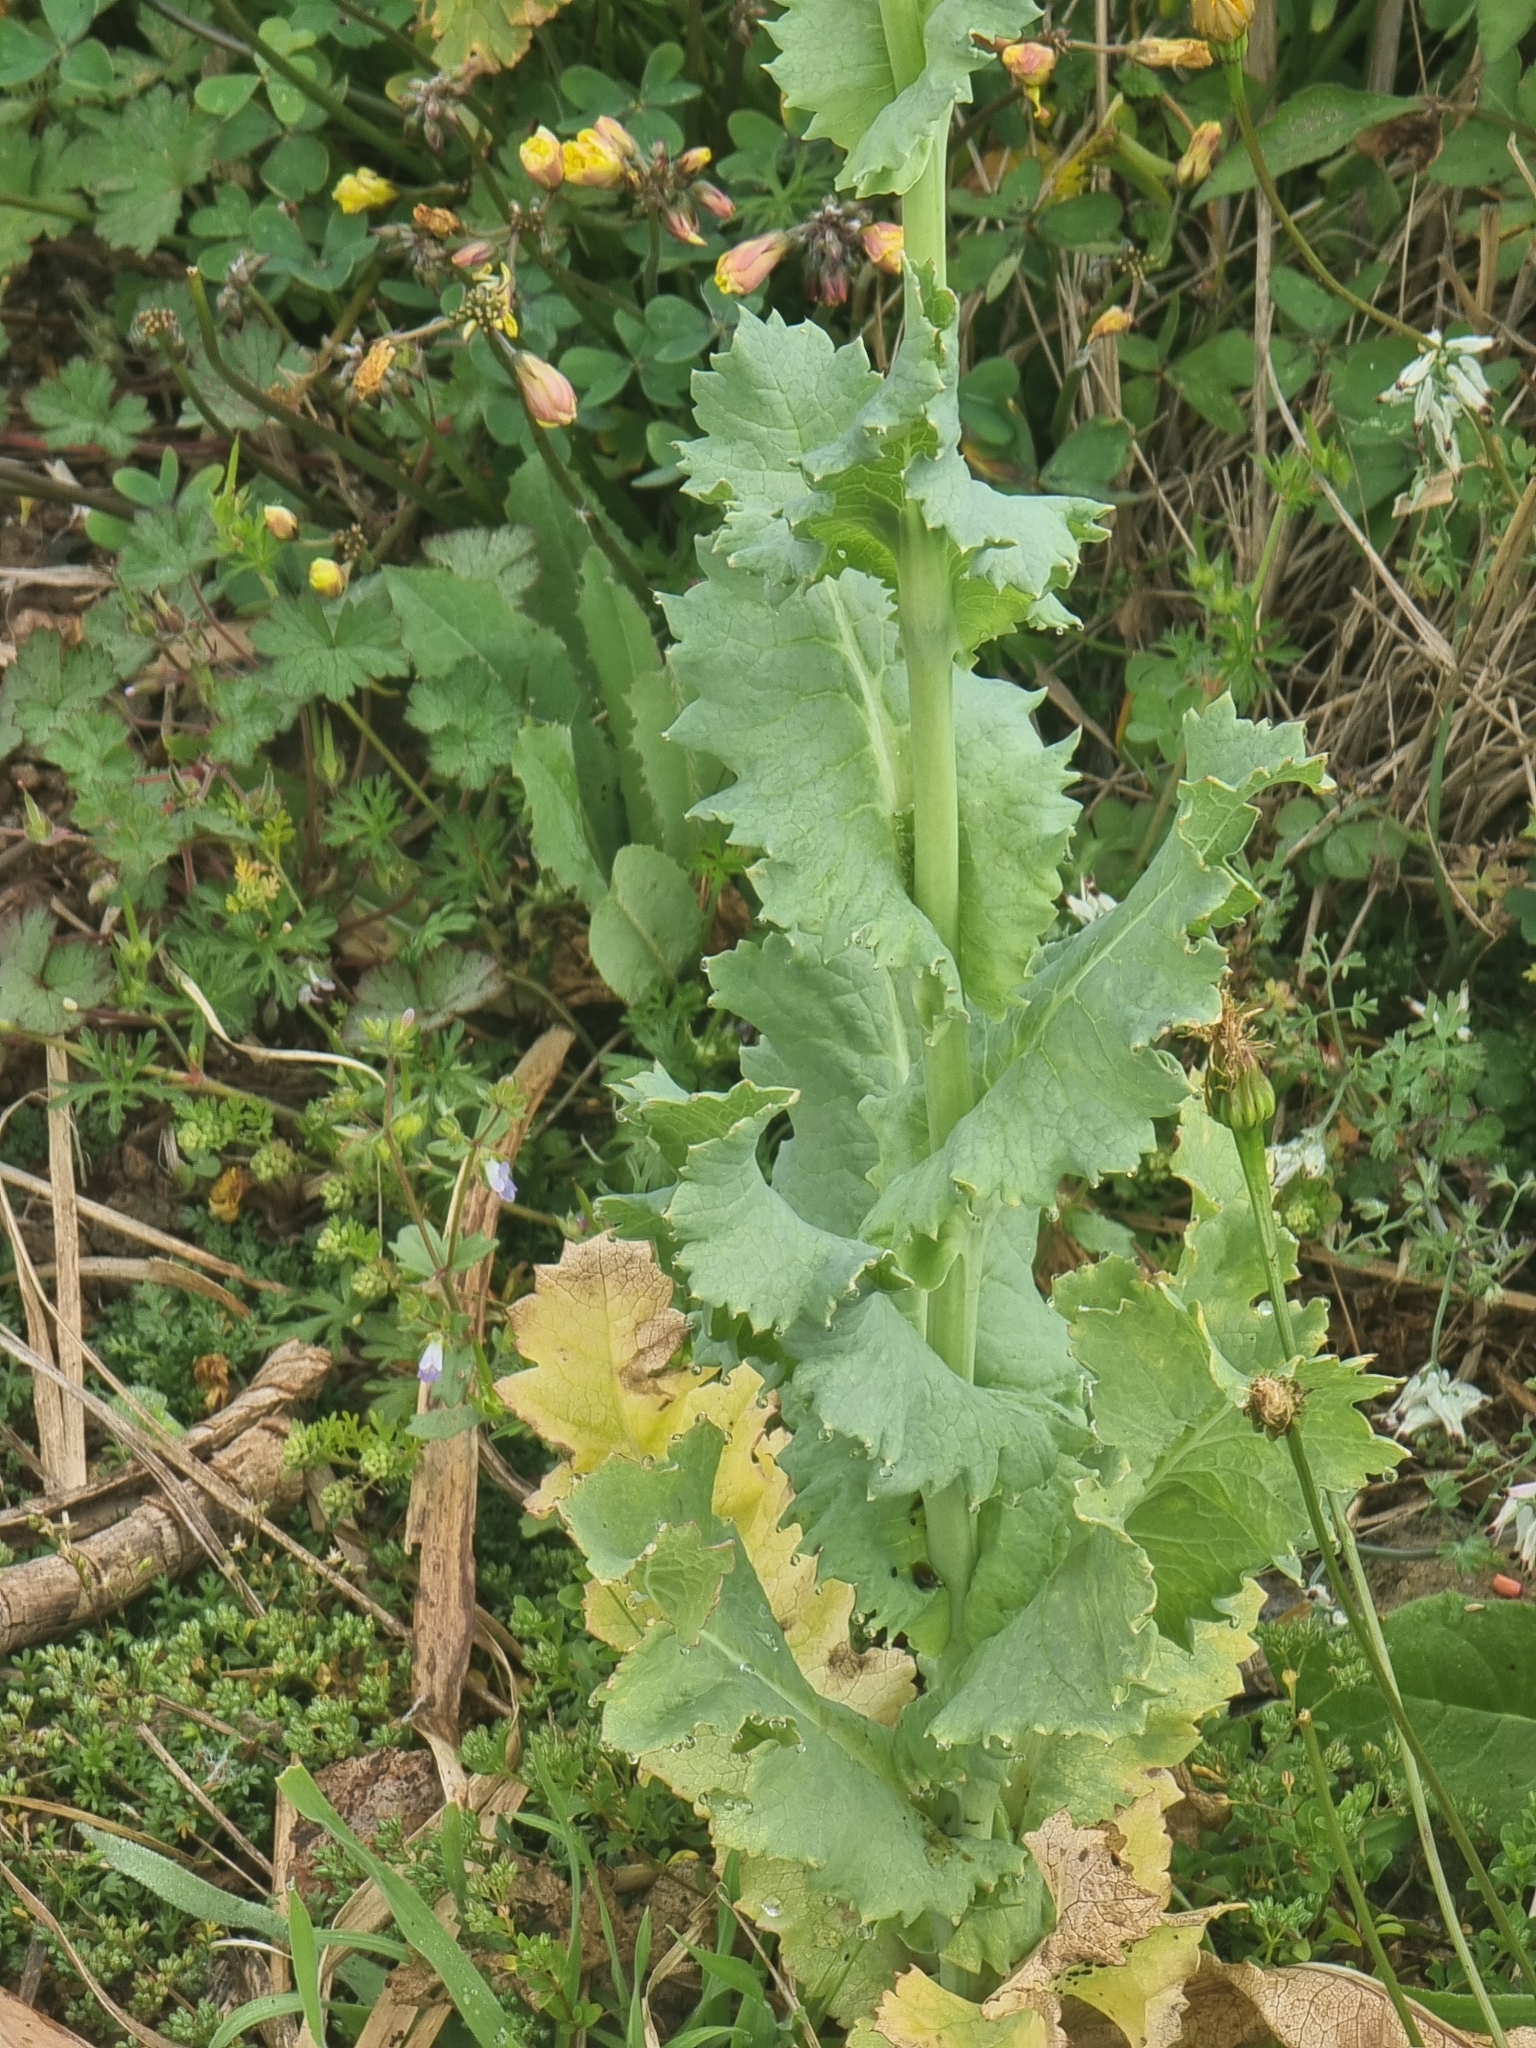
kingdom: Plantae
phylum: Tracheophyta
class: Magnoliopsida
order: Ranunculales
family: Papaveraceae
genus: Papaver
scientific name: Papaver somniferum
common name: Opium poppy
